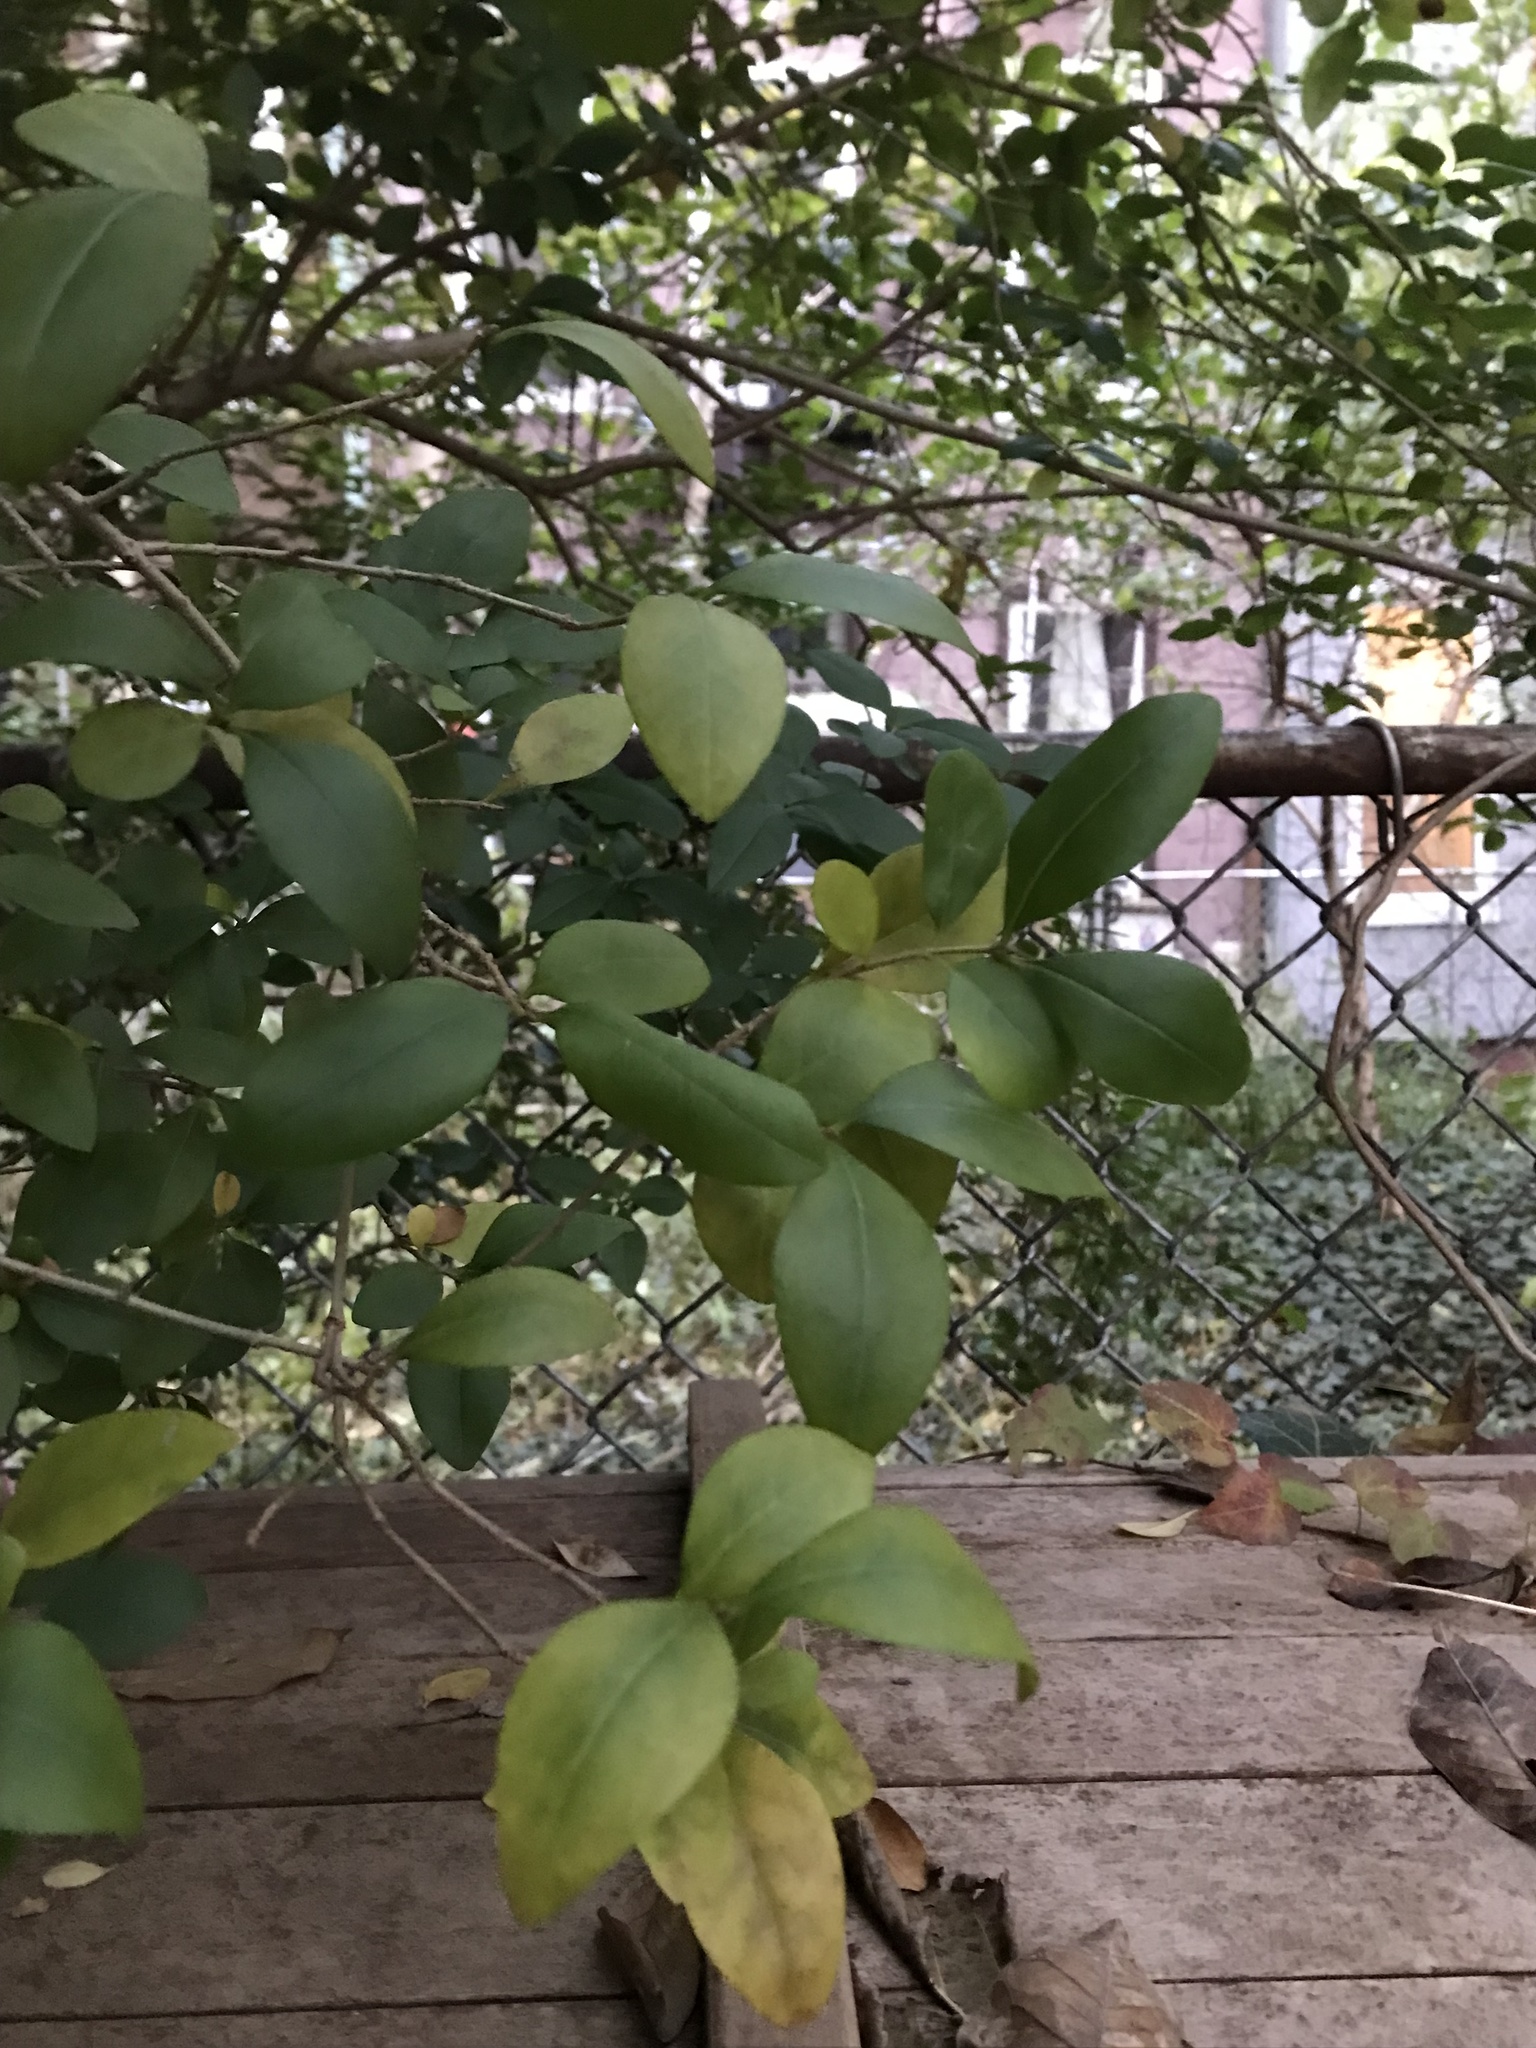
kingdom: Plantae
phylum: Tracheophyta
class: Magnoliopsida
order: Lamiales
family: Oleaceae
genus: Ligustrum
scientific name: Ligustrum ovalifolium
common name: California privet
